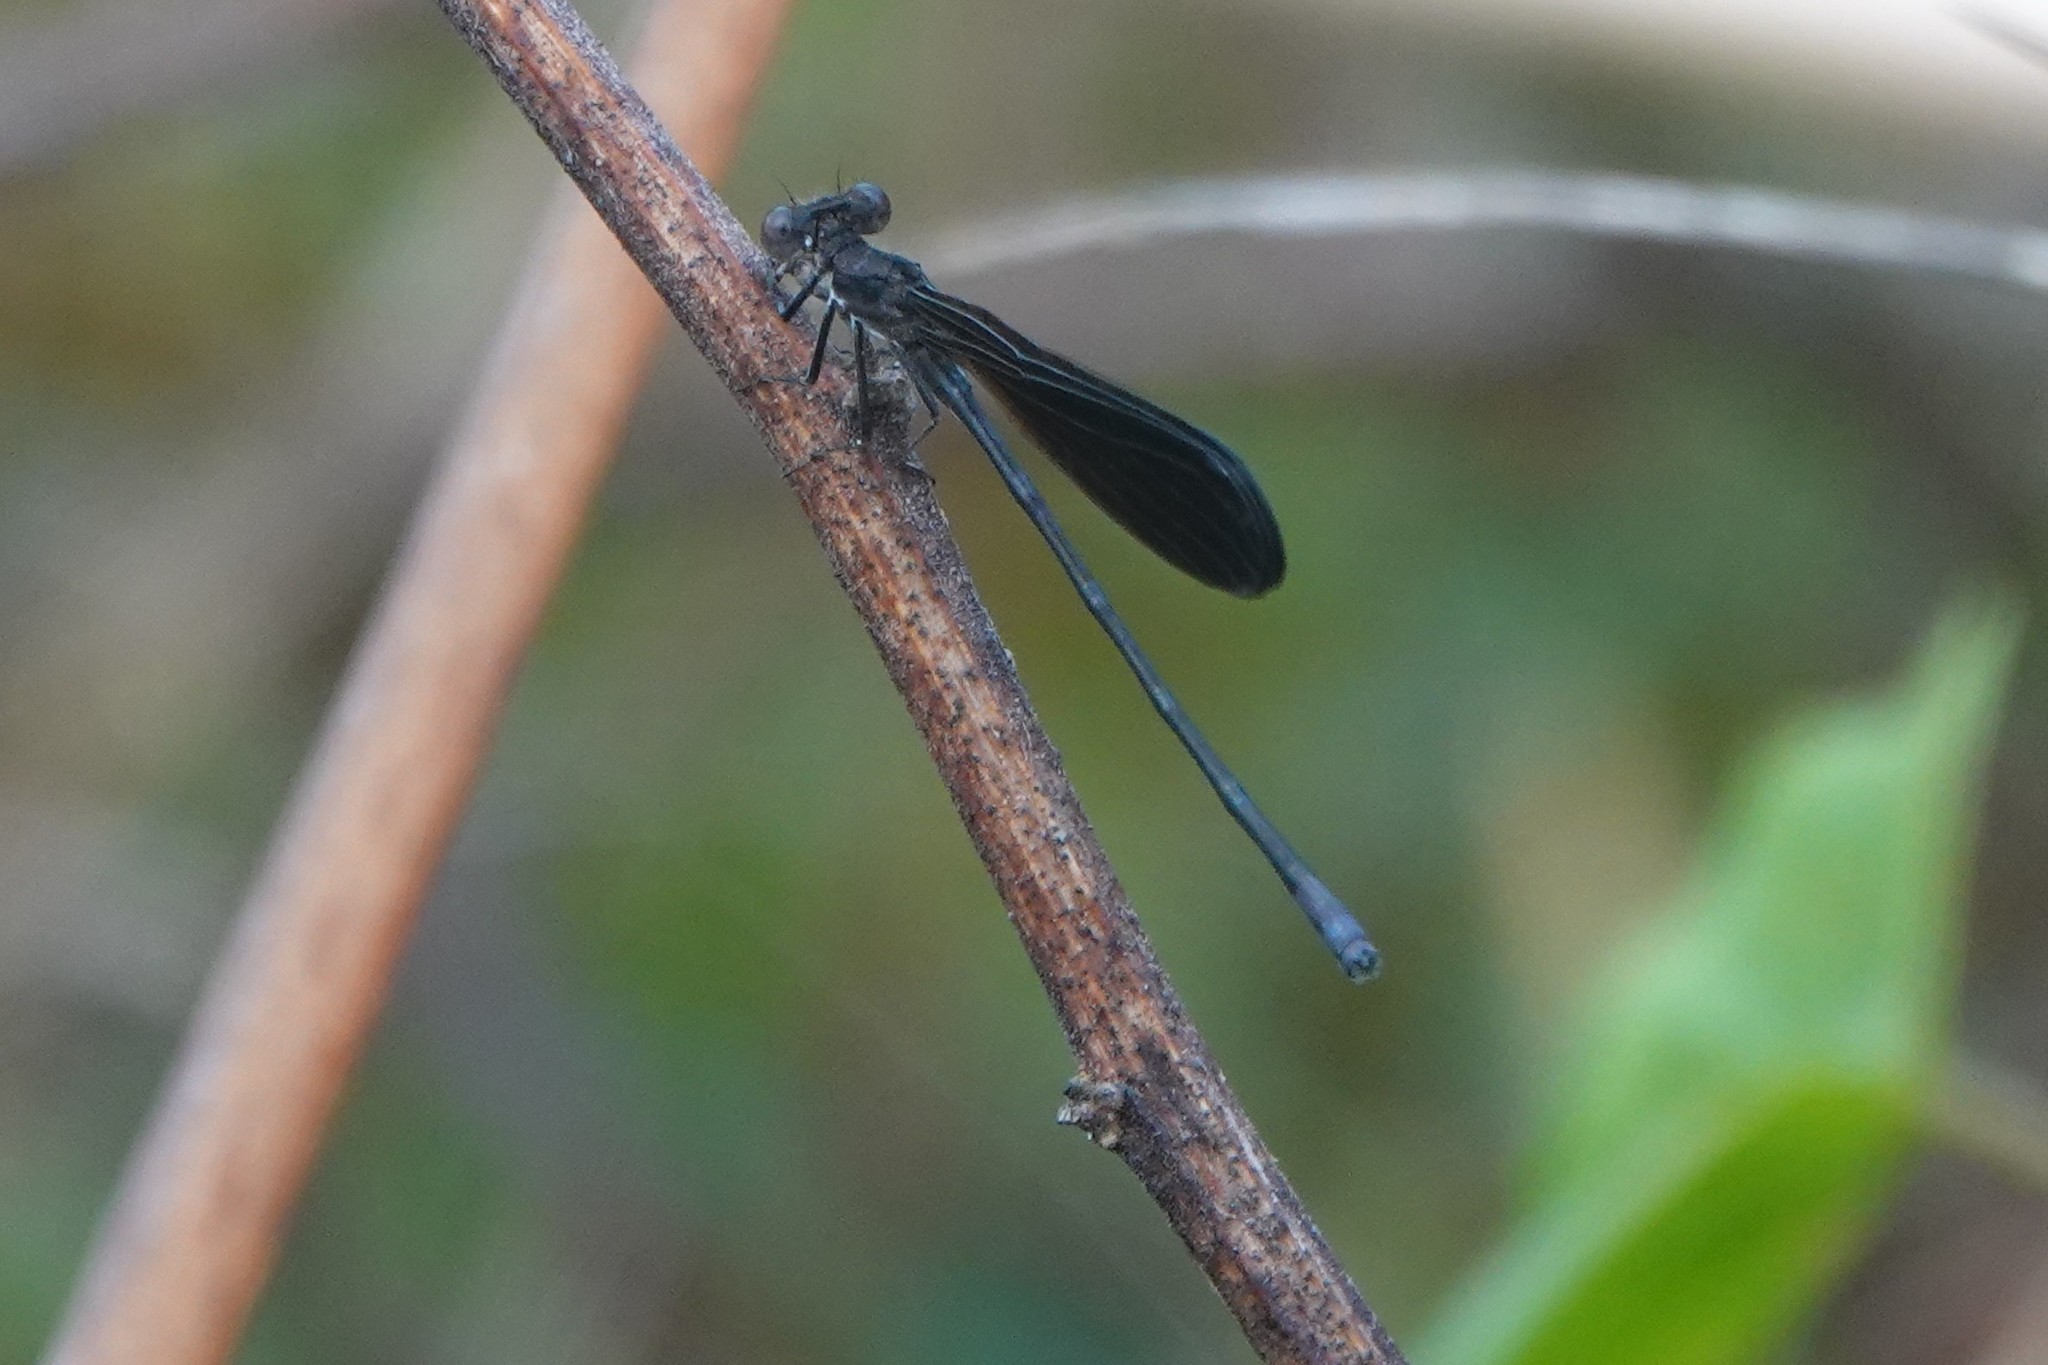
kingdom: Animalia
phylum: Arthropoda
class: Insecta
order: Odonata
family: Coenagrionidae
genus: Argia
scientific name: Argia fumipennis
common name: Variable dancer
